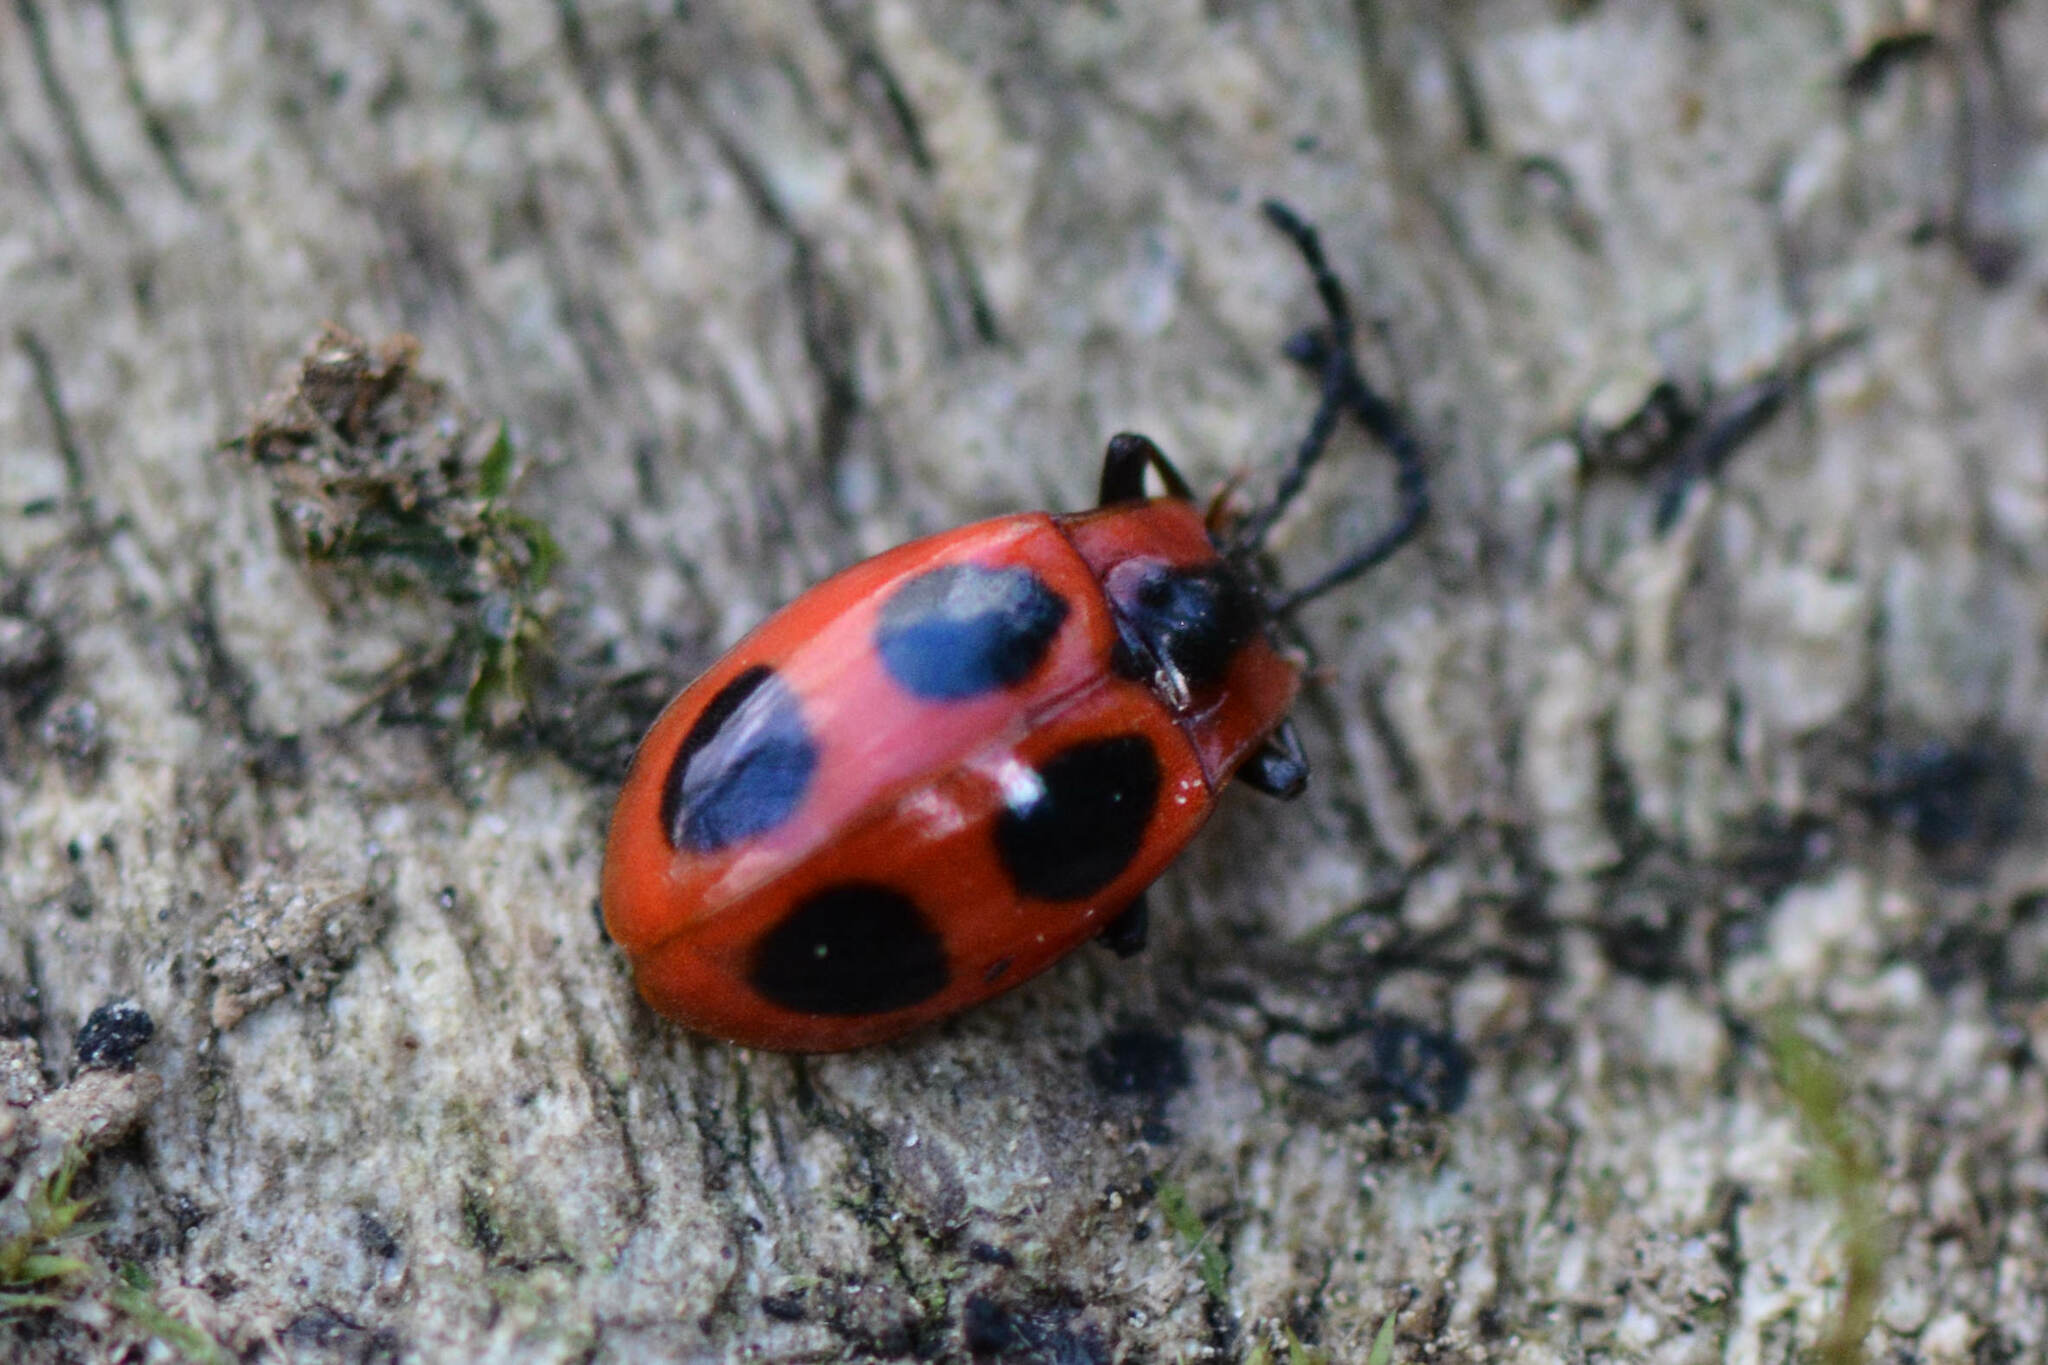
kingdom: Animalia
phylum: Arthropoda
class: Insecta
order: Coleoptera
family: Endomychidae
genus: Endomychus
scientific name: Endomychus coccineus
